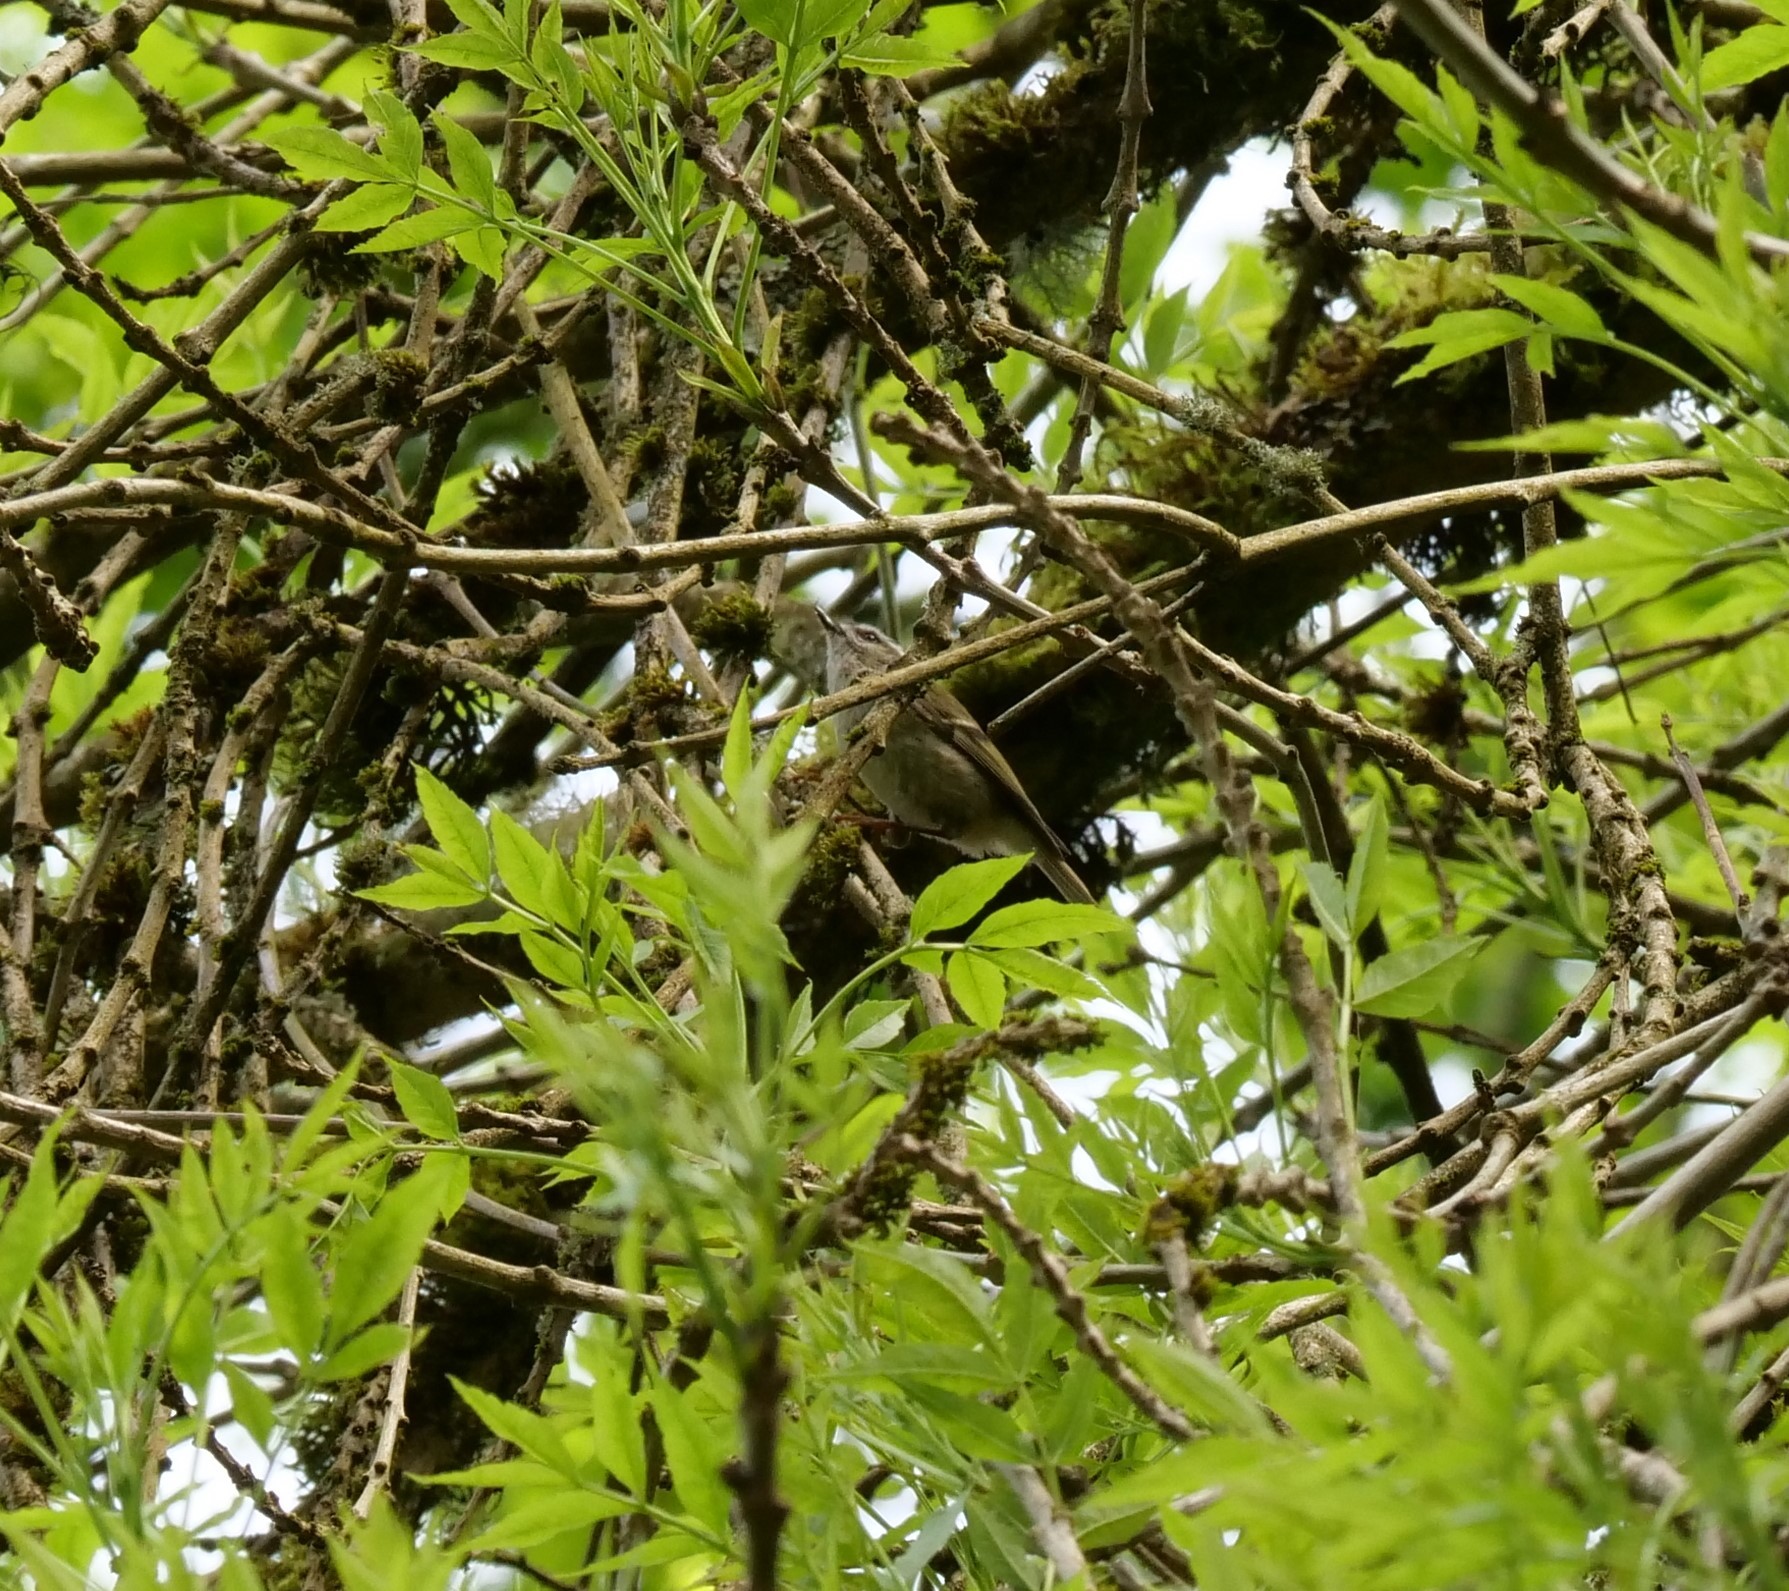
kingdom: Animalia
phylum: Chordata
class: Aves
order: Passeriformes
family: Regulidae
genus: Regulus
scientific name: Regulus satrapa
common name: Golden-crowned kinglet
